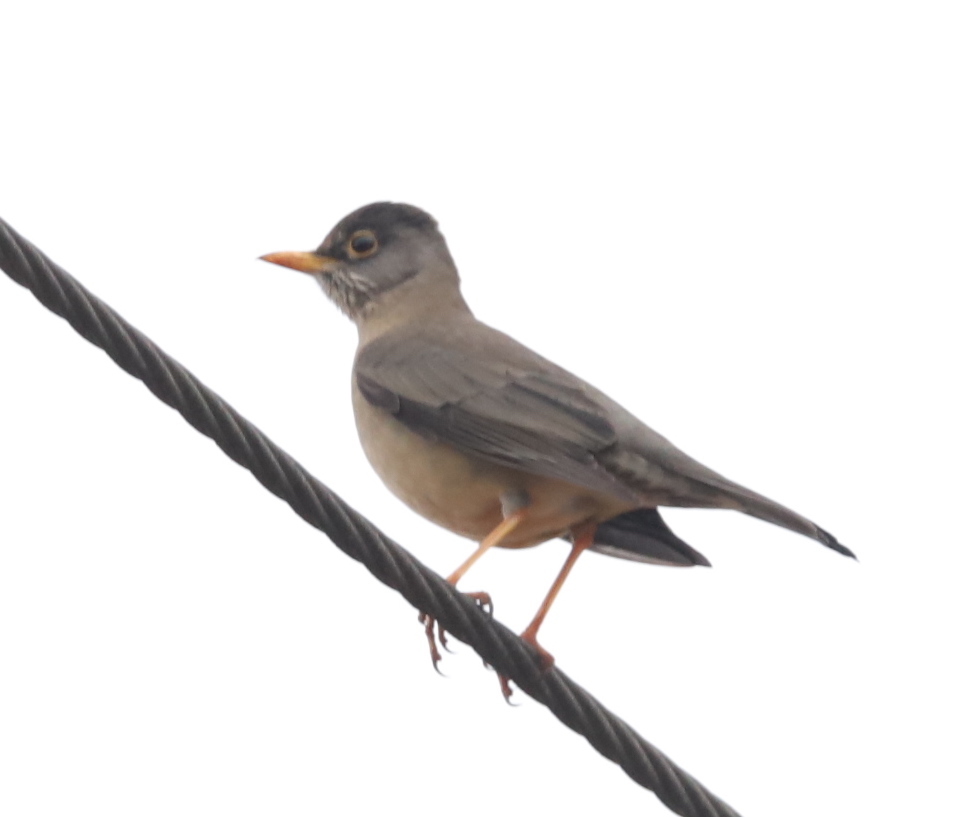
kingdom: Animalia
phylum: Chordata
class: Aves
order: Passeriformes
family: Turdidae
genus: Turdus
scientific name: Turdus falcklandii
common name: Austral thrush
